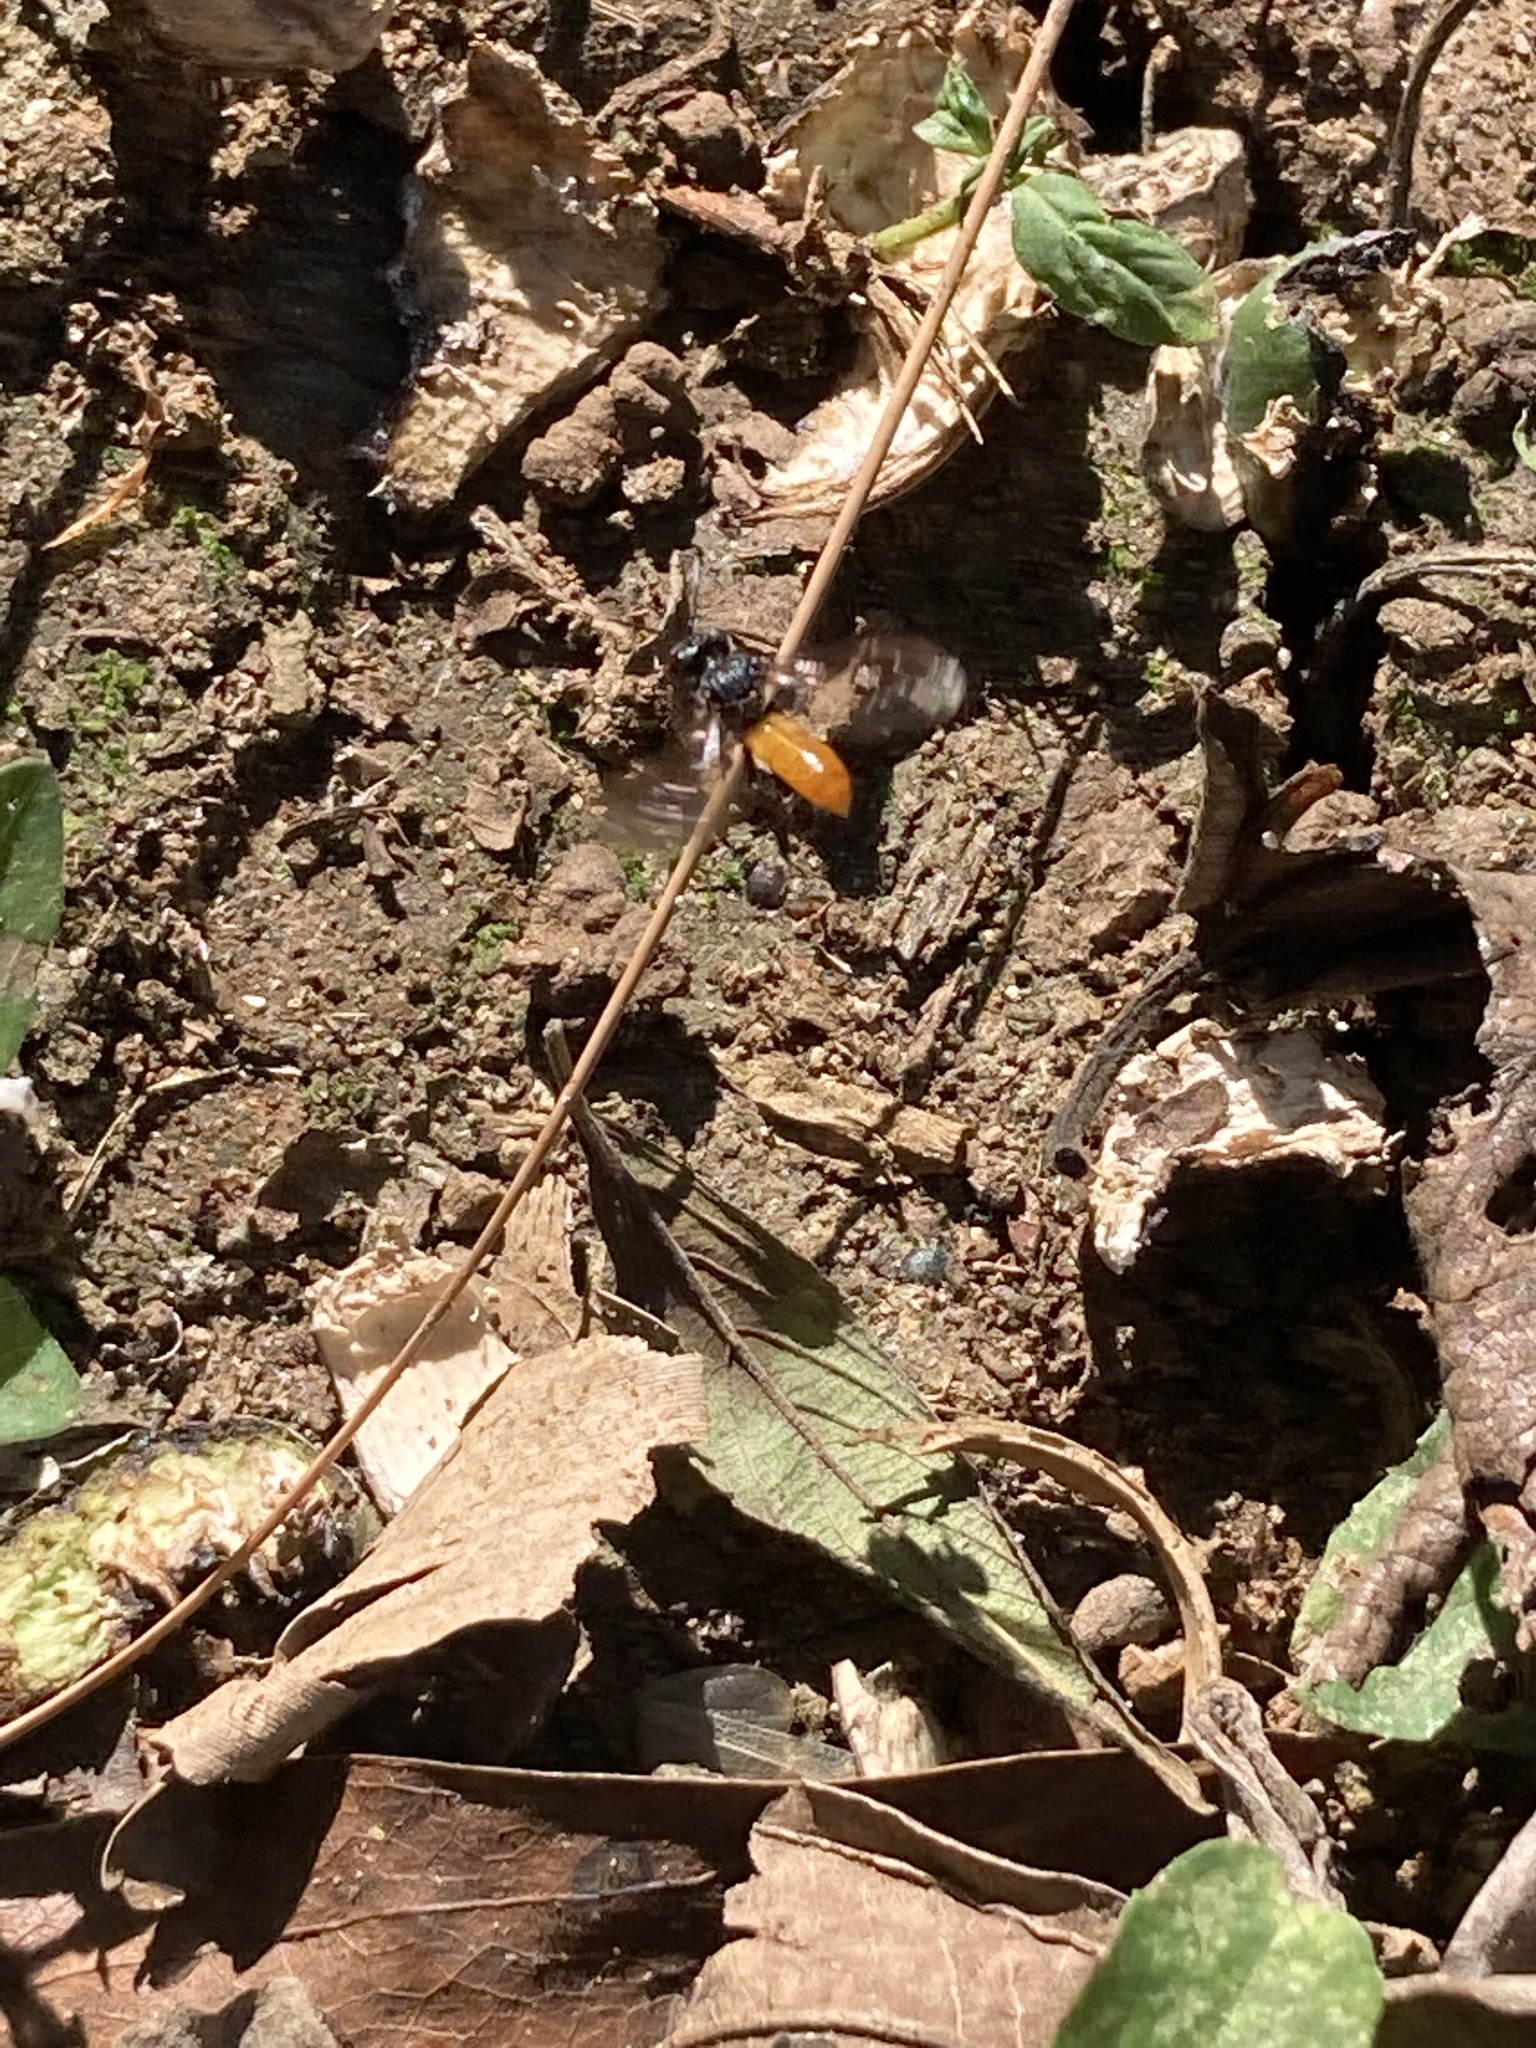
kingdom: Animalia
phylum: Arthropoda
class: Insecta
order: Hymenoptera
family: Apidae
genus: Trigona
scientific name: Trigona fulviventris
